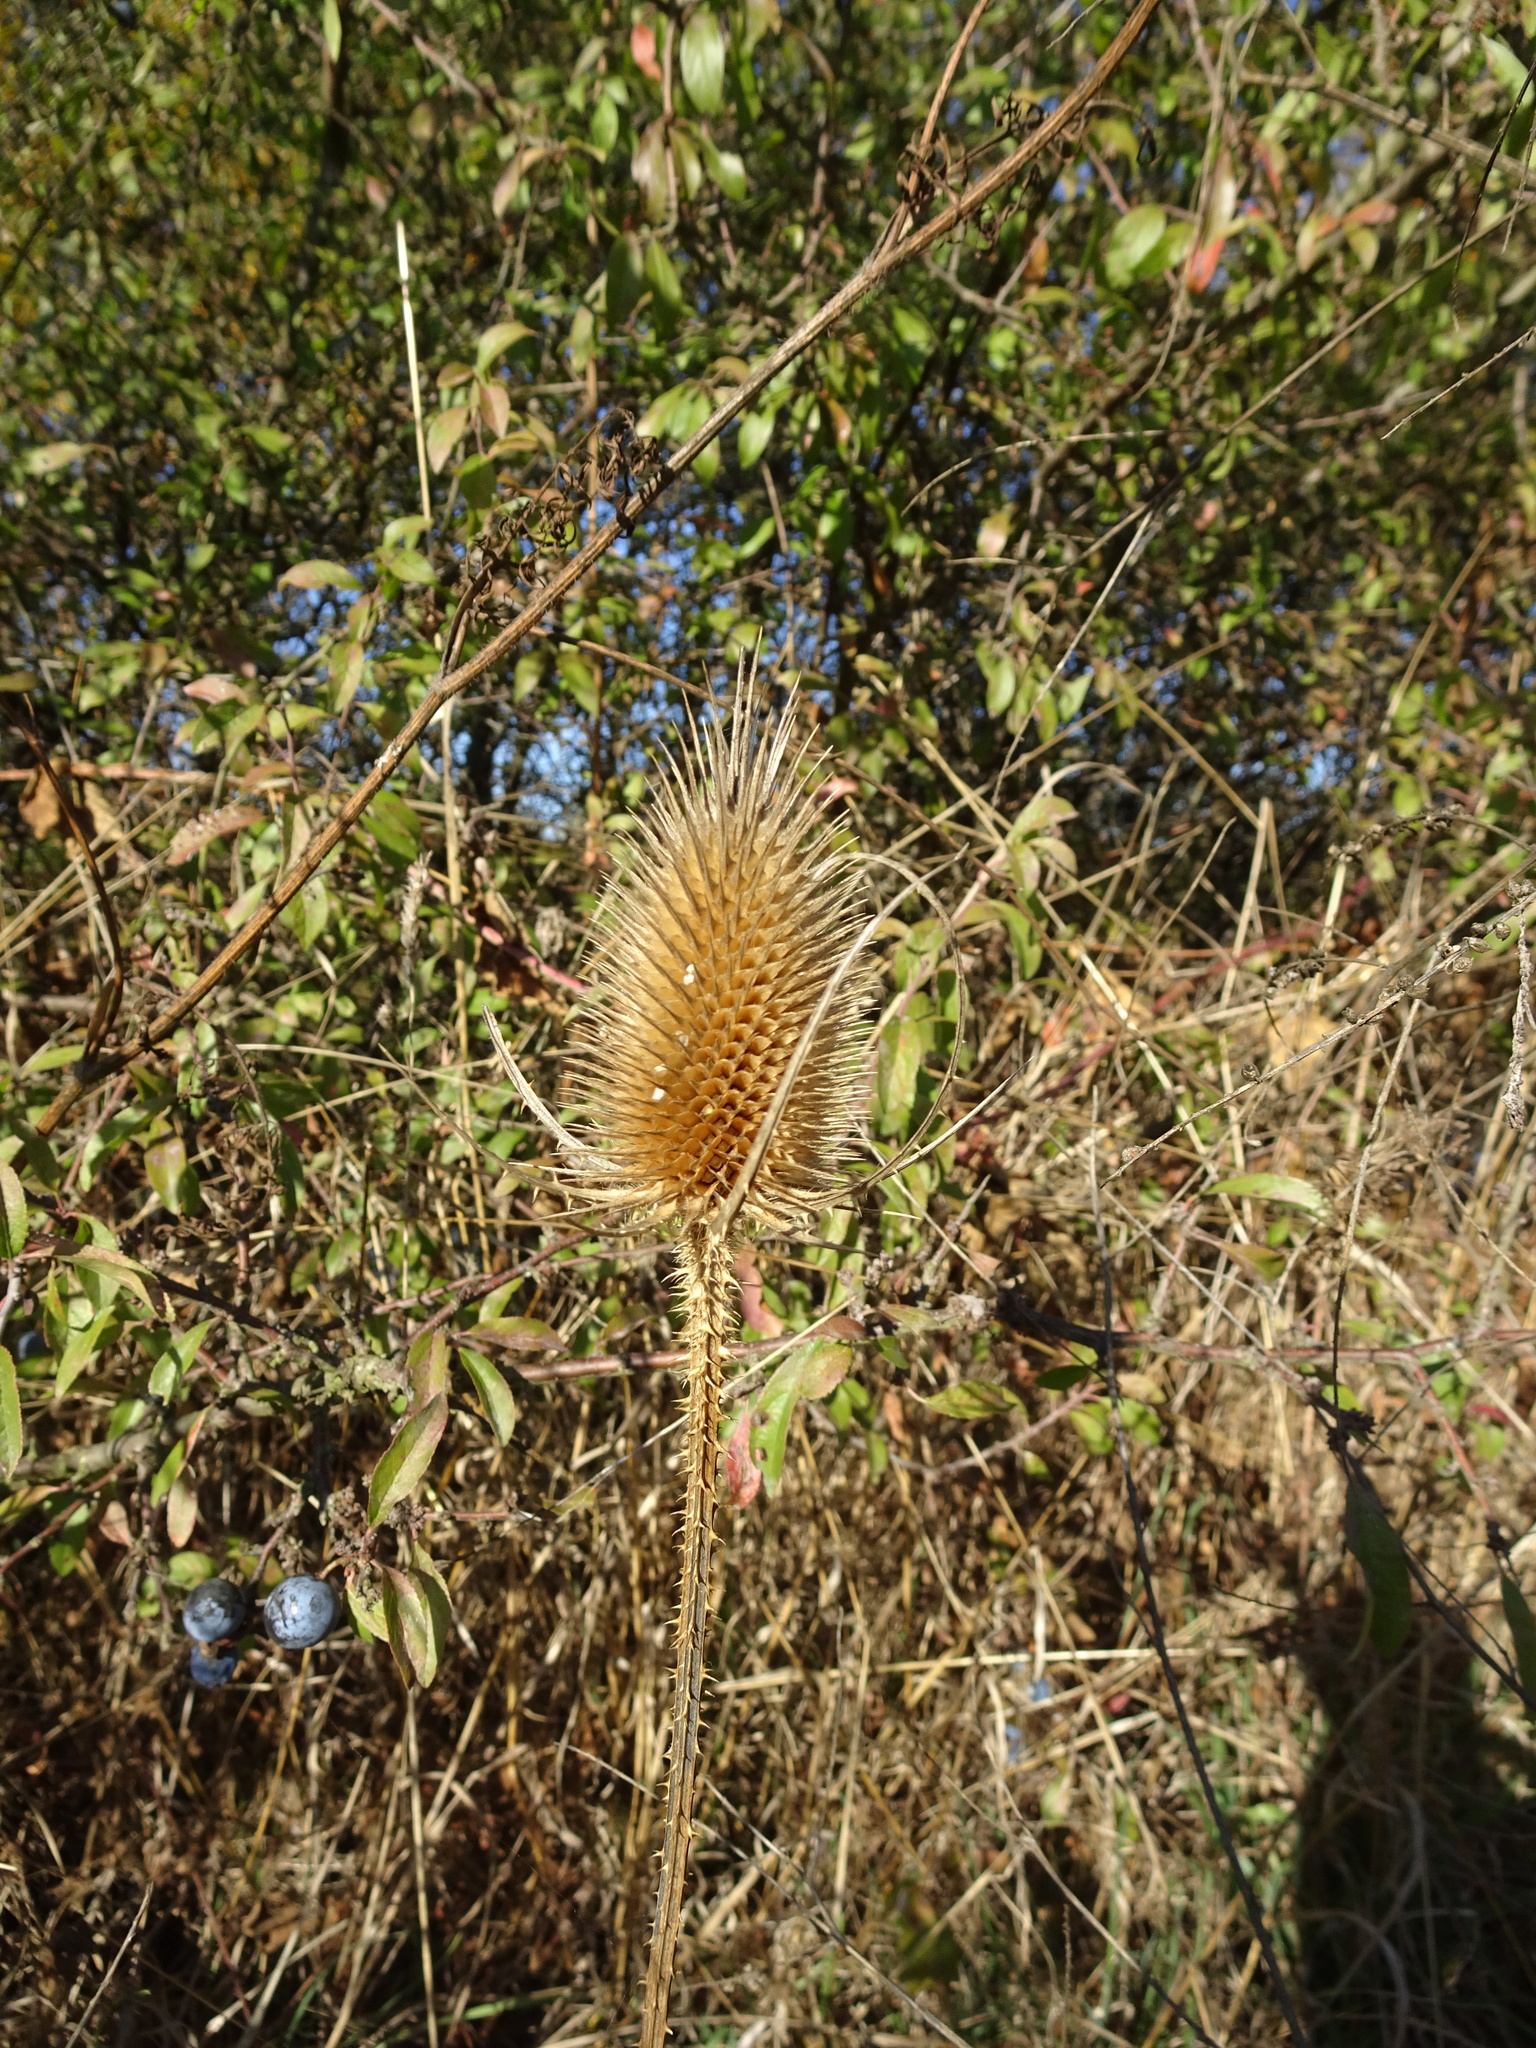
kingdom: Plantae
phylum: Tracheophyta
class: Magnoliopsida
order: Dipsacales
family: Caprifoliaceae
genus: Dipsacus
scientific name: Dipsacus fullonum
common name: Teasel
